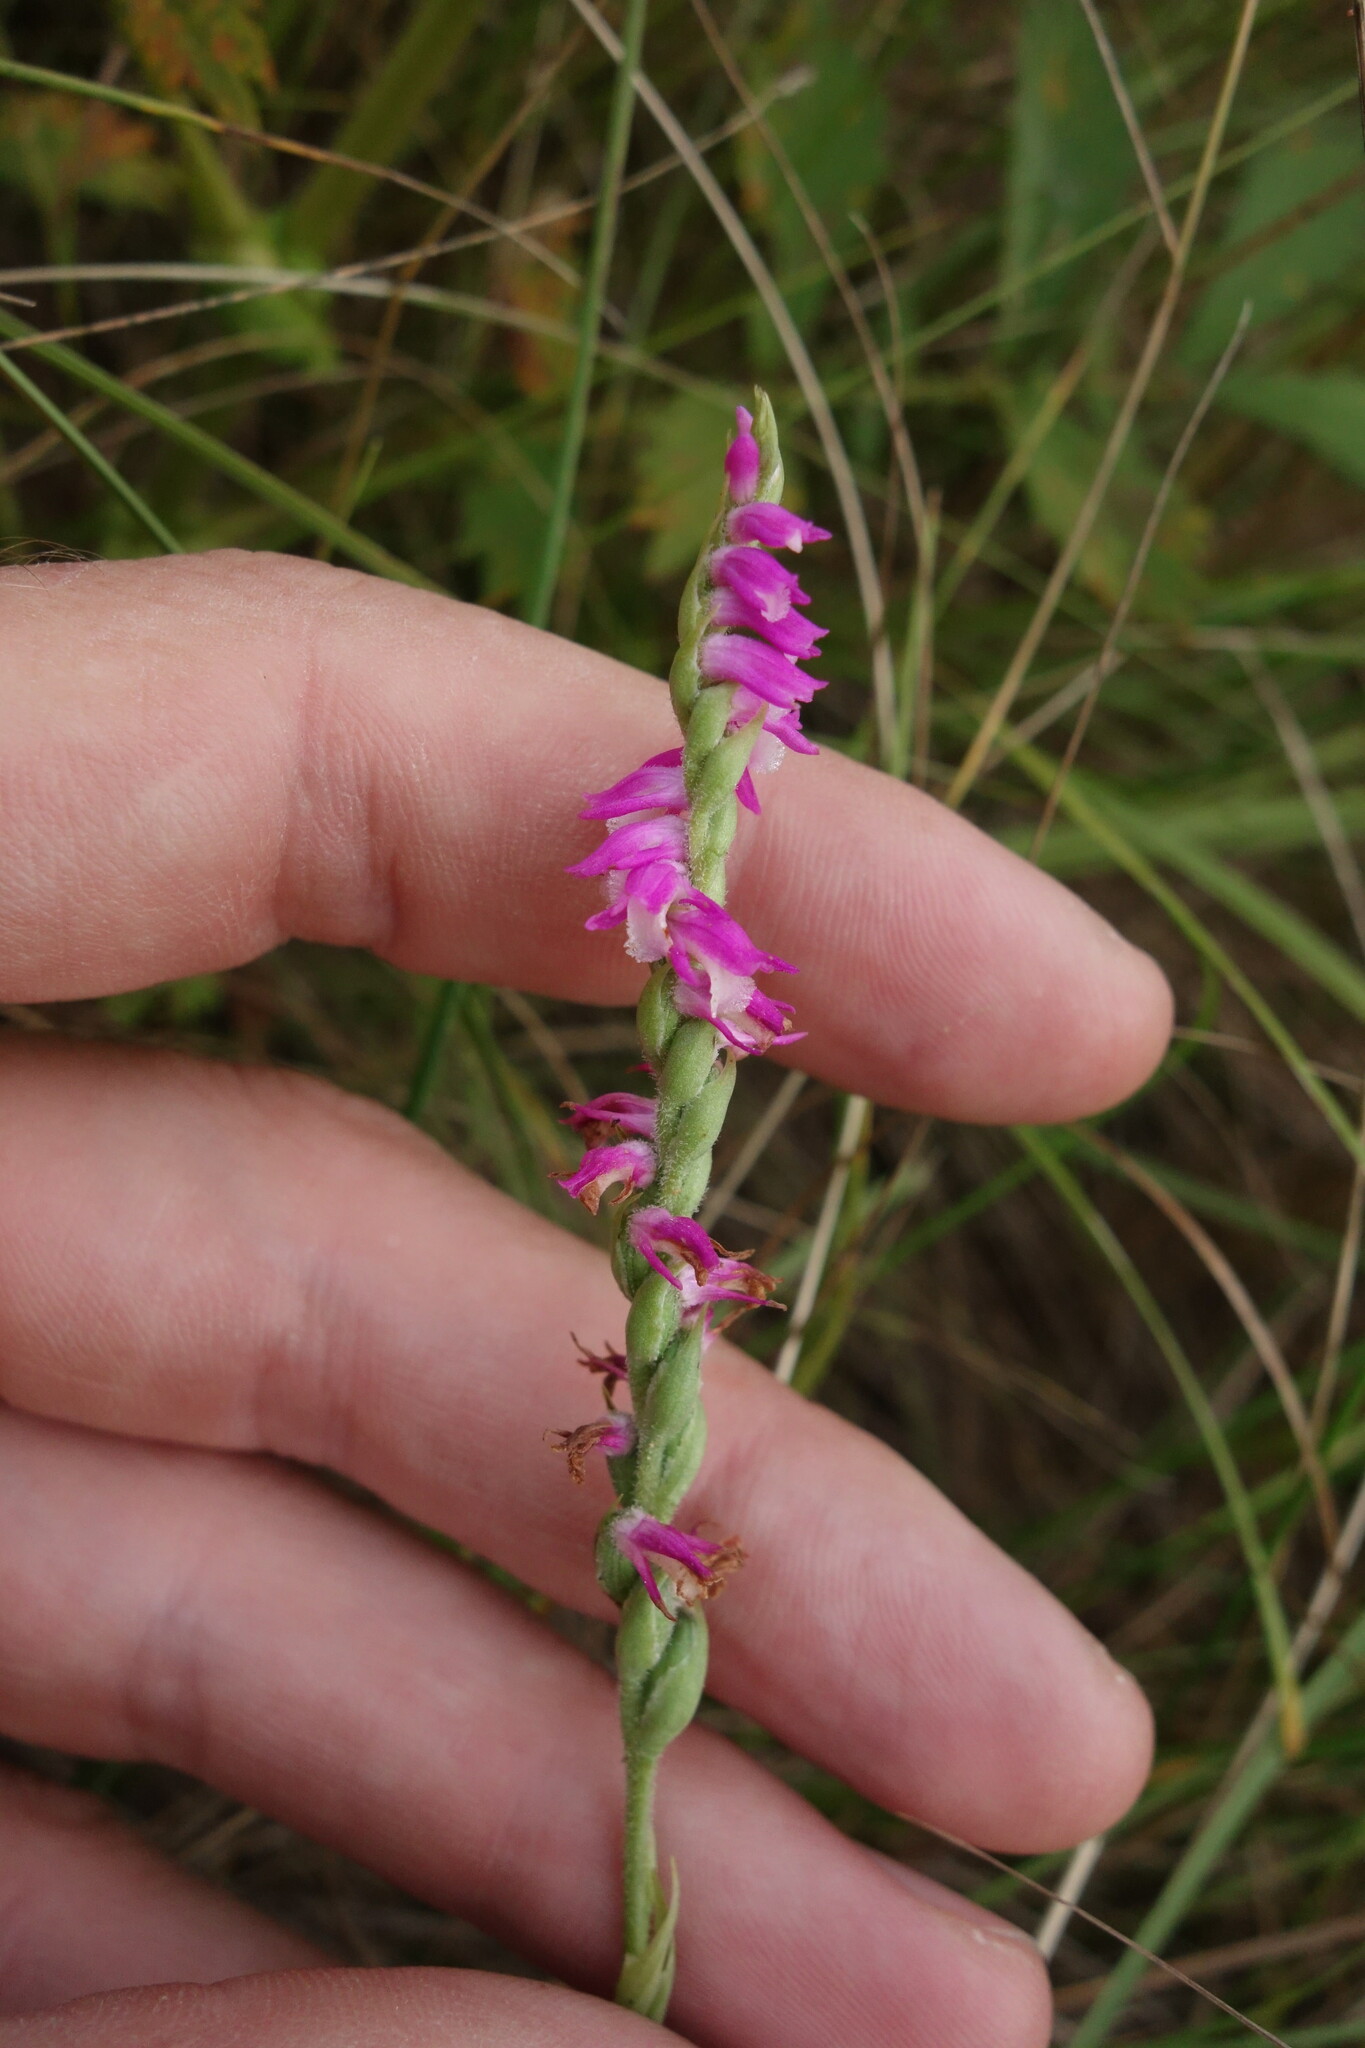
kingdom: Plantae
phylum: Tracheophyta
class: Liliopsida
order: Asparagales
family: Orchidaceae
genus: Spiranthes
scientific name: Spiranthes australis
